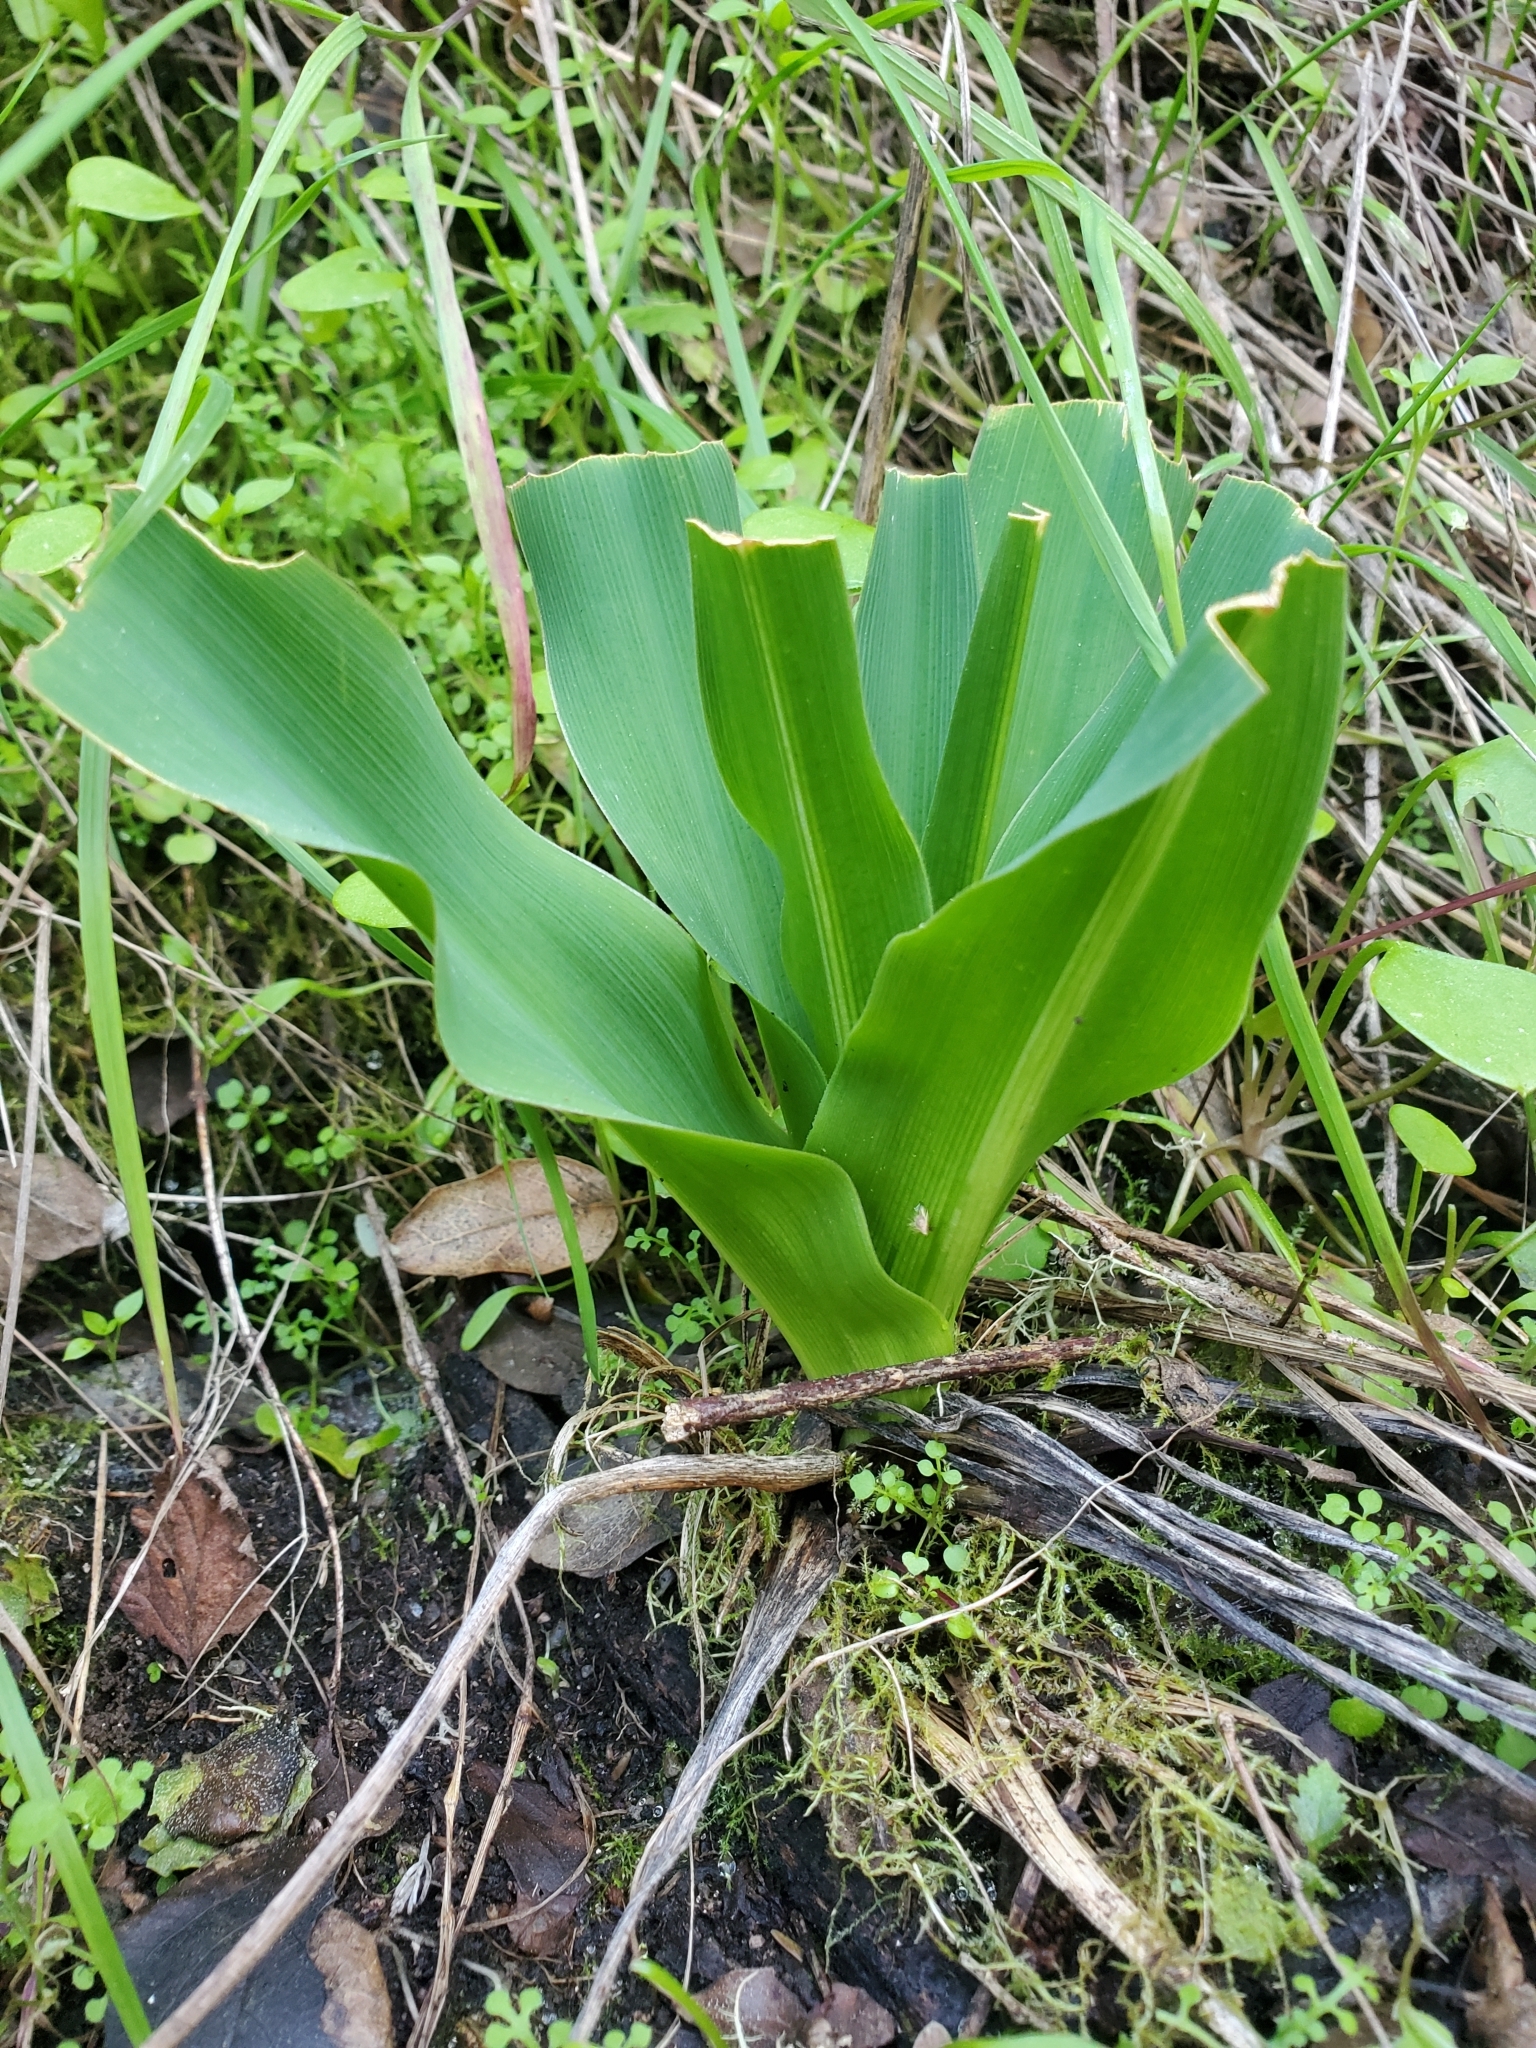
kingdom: Plantae
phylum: Tracheophyta
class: Liliopsida
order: Asparagales
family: Asparagaceae
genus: Chlorogalum
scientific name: Chlorogalum pomeridianum
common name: Amole
